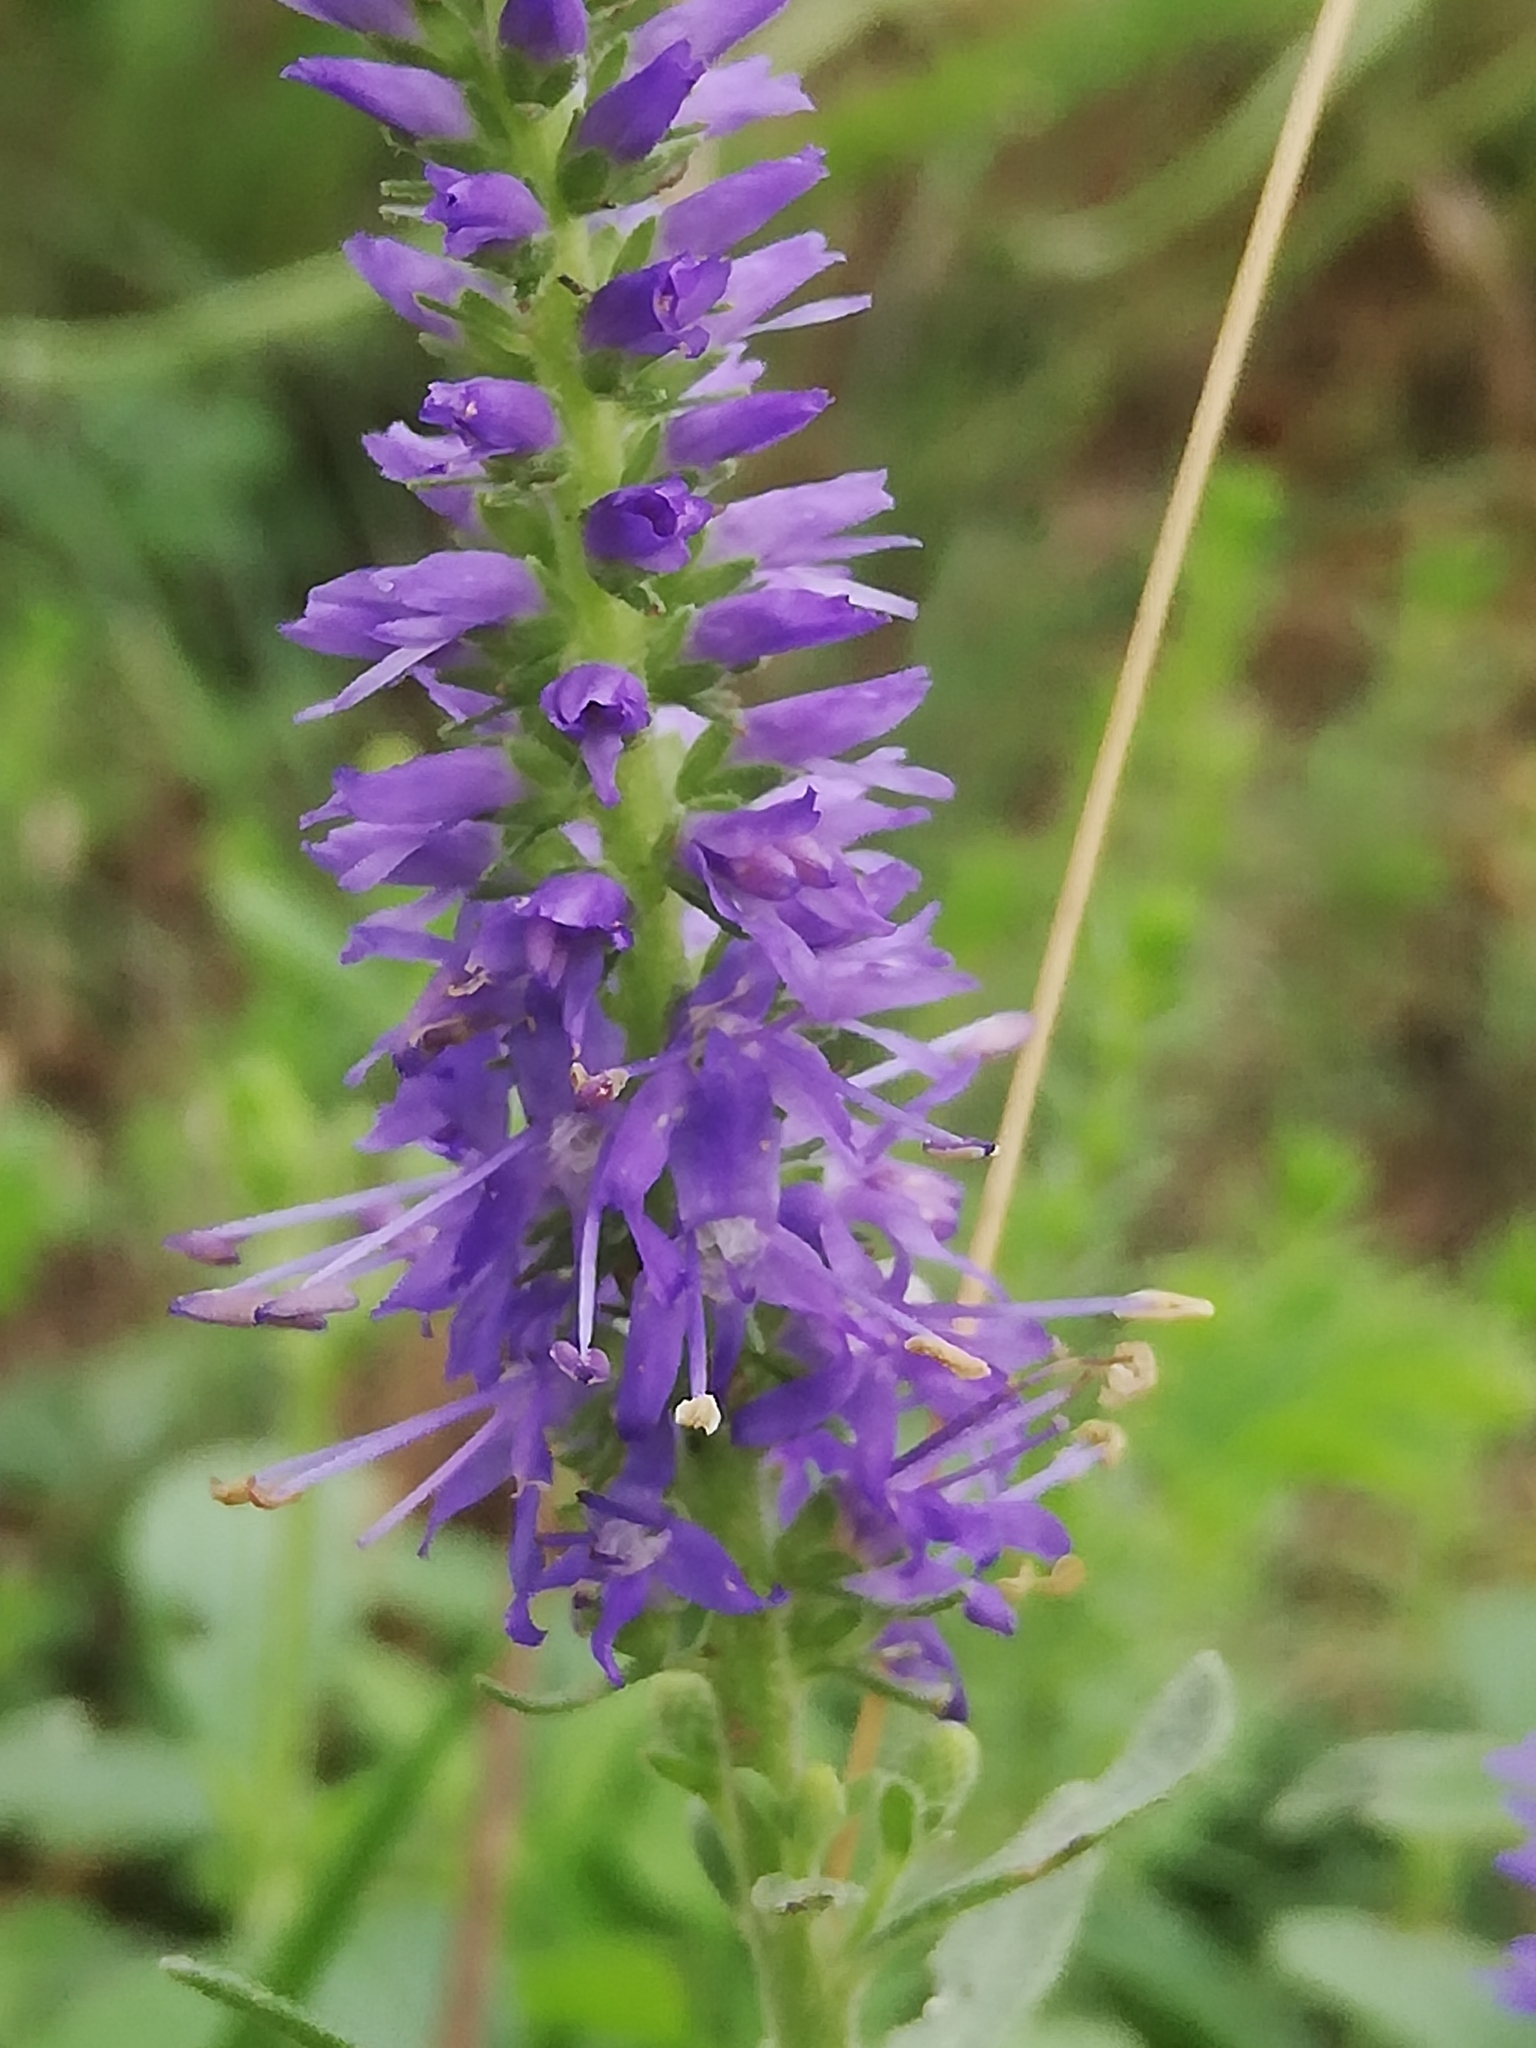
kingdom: Plantae
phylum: Tracheophyta
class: Magnoliopsida
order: Lamiales
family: Plantaginaceae
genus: Veronica
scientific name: Veronica spicata
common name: Spiked speedwell
